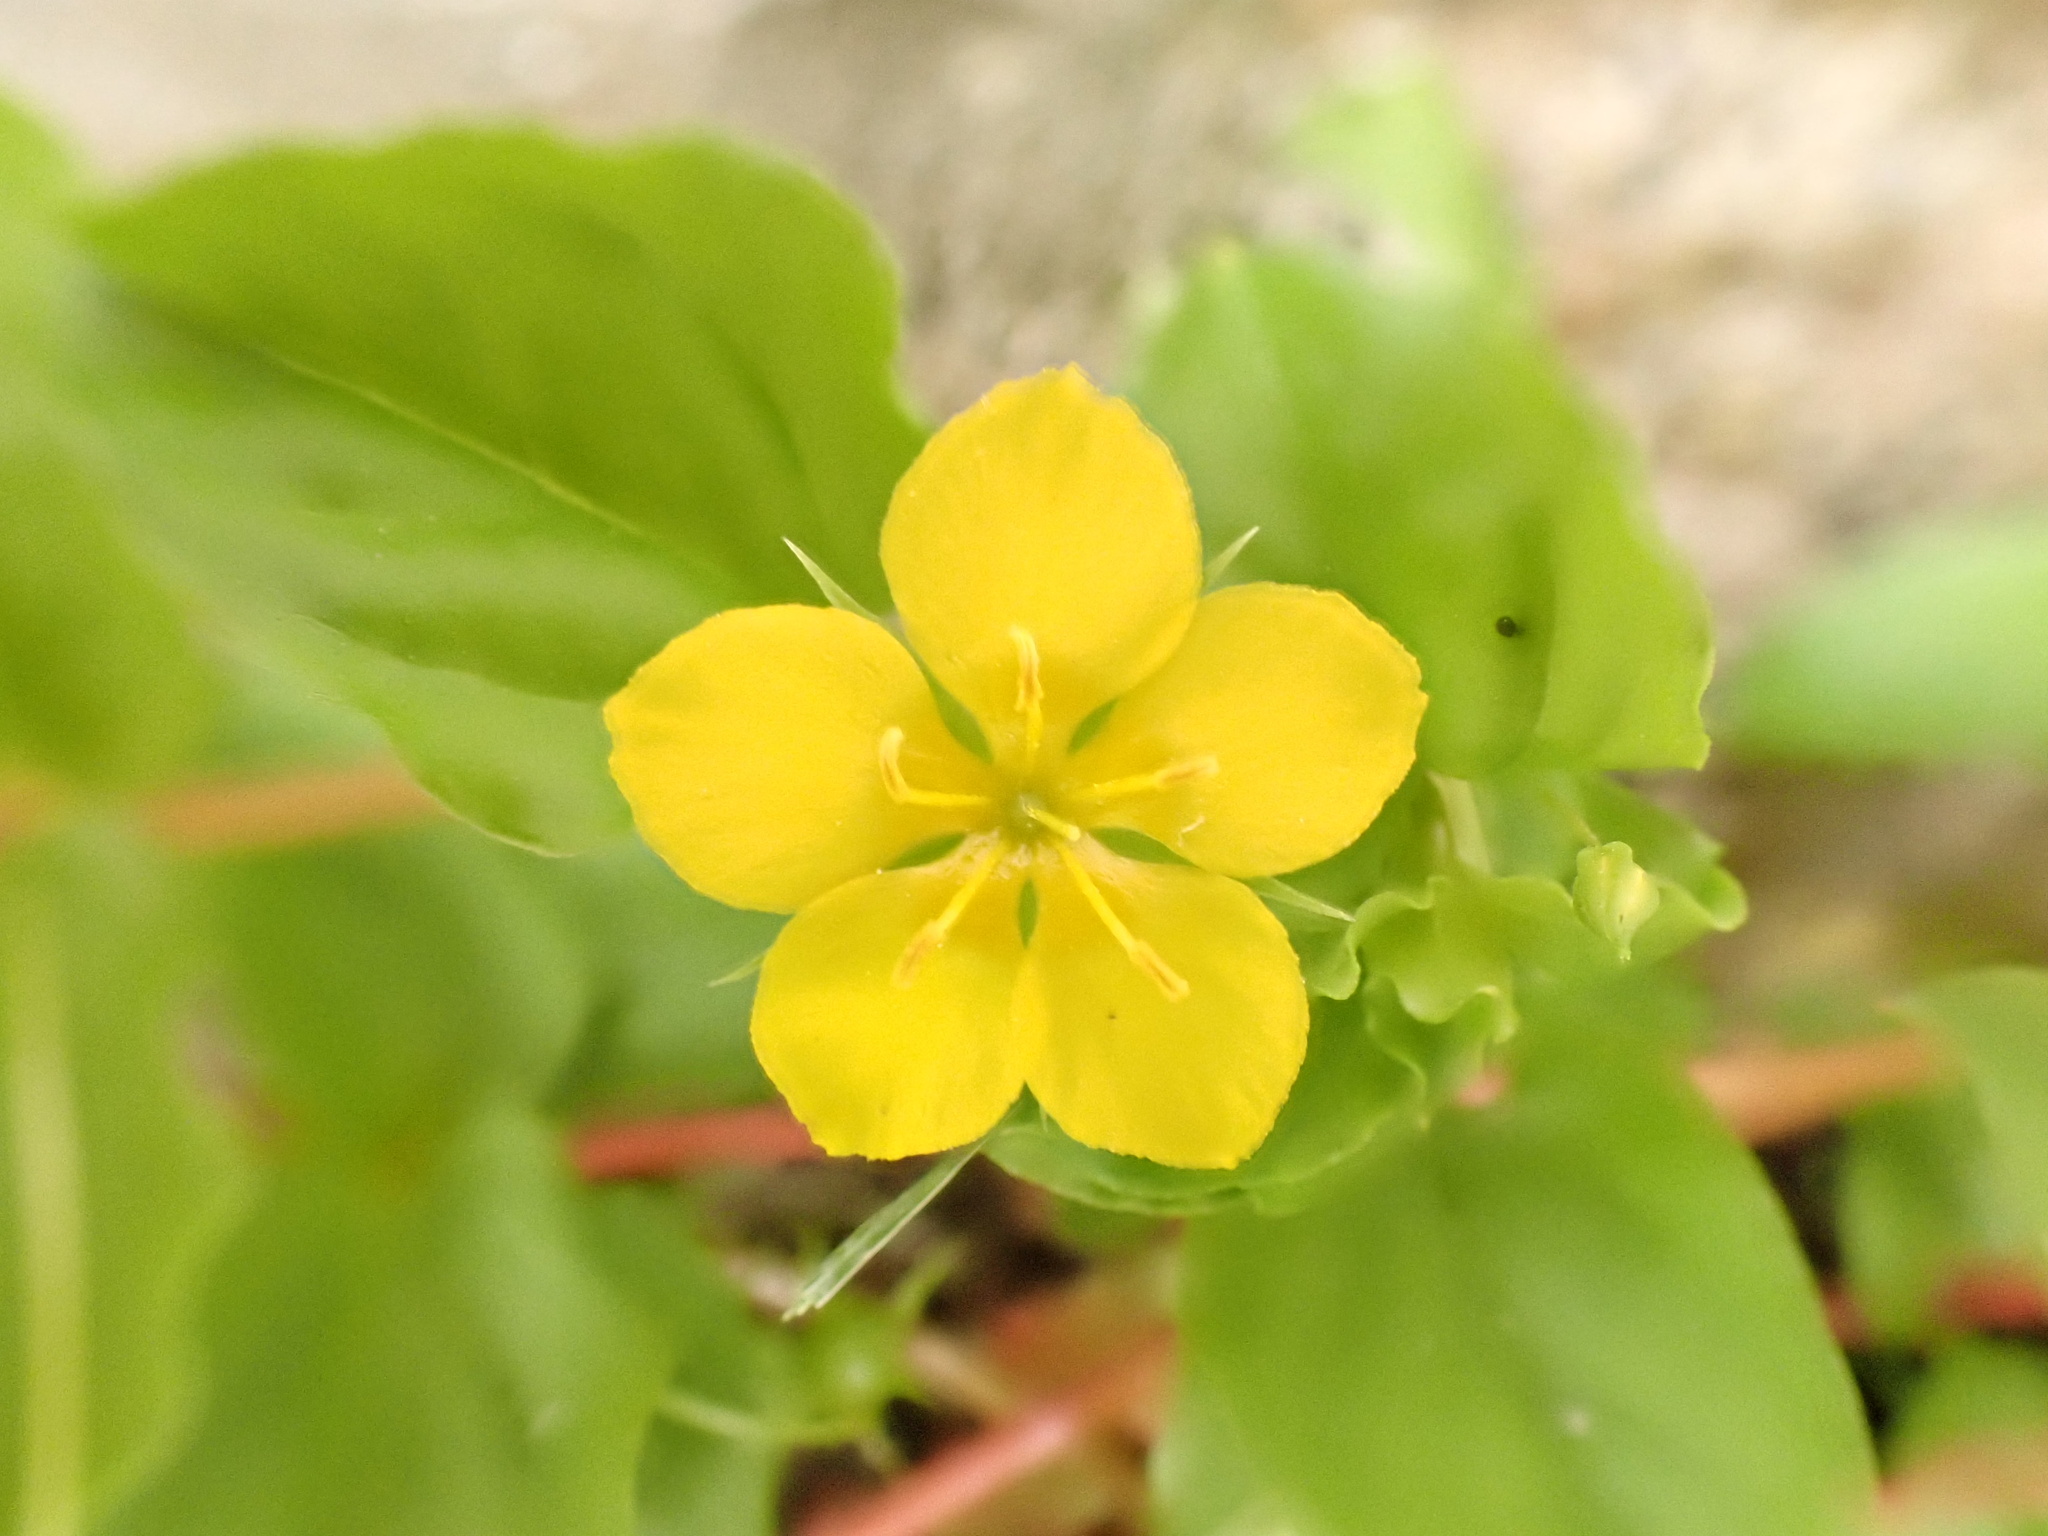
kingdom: Plantae
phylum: Tracheophyta
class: Magnoliopsida
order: Ericales
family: Primulaceae
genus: Lysimachia
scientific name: Lysimachia nemorum
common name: Yellow pimpernel
